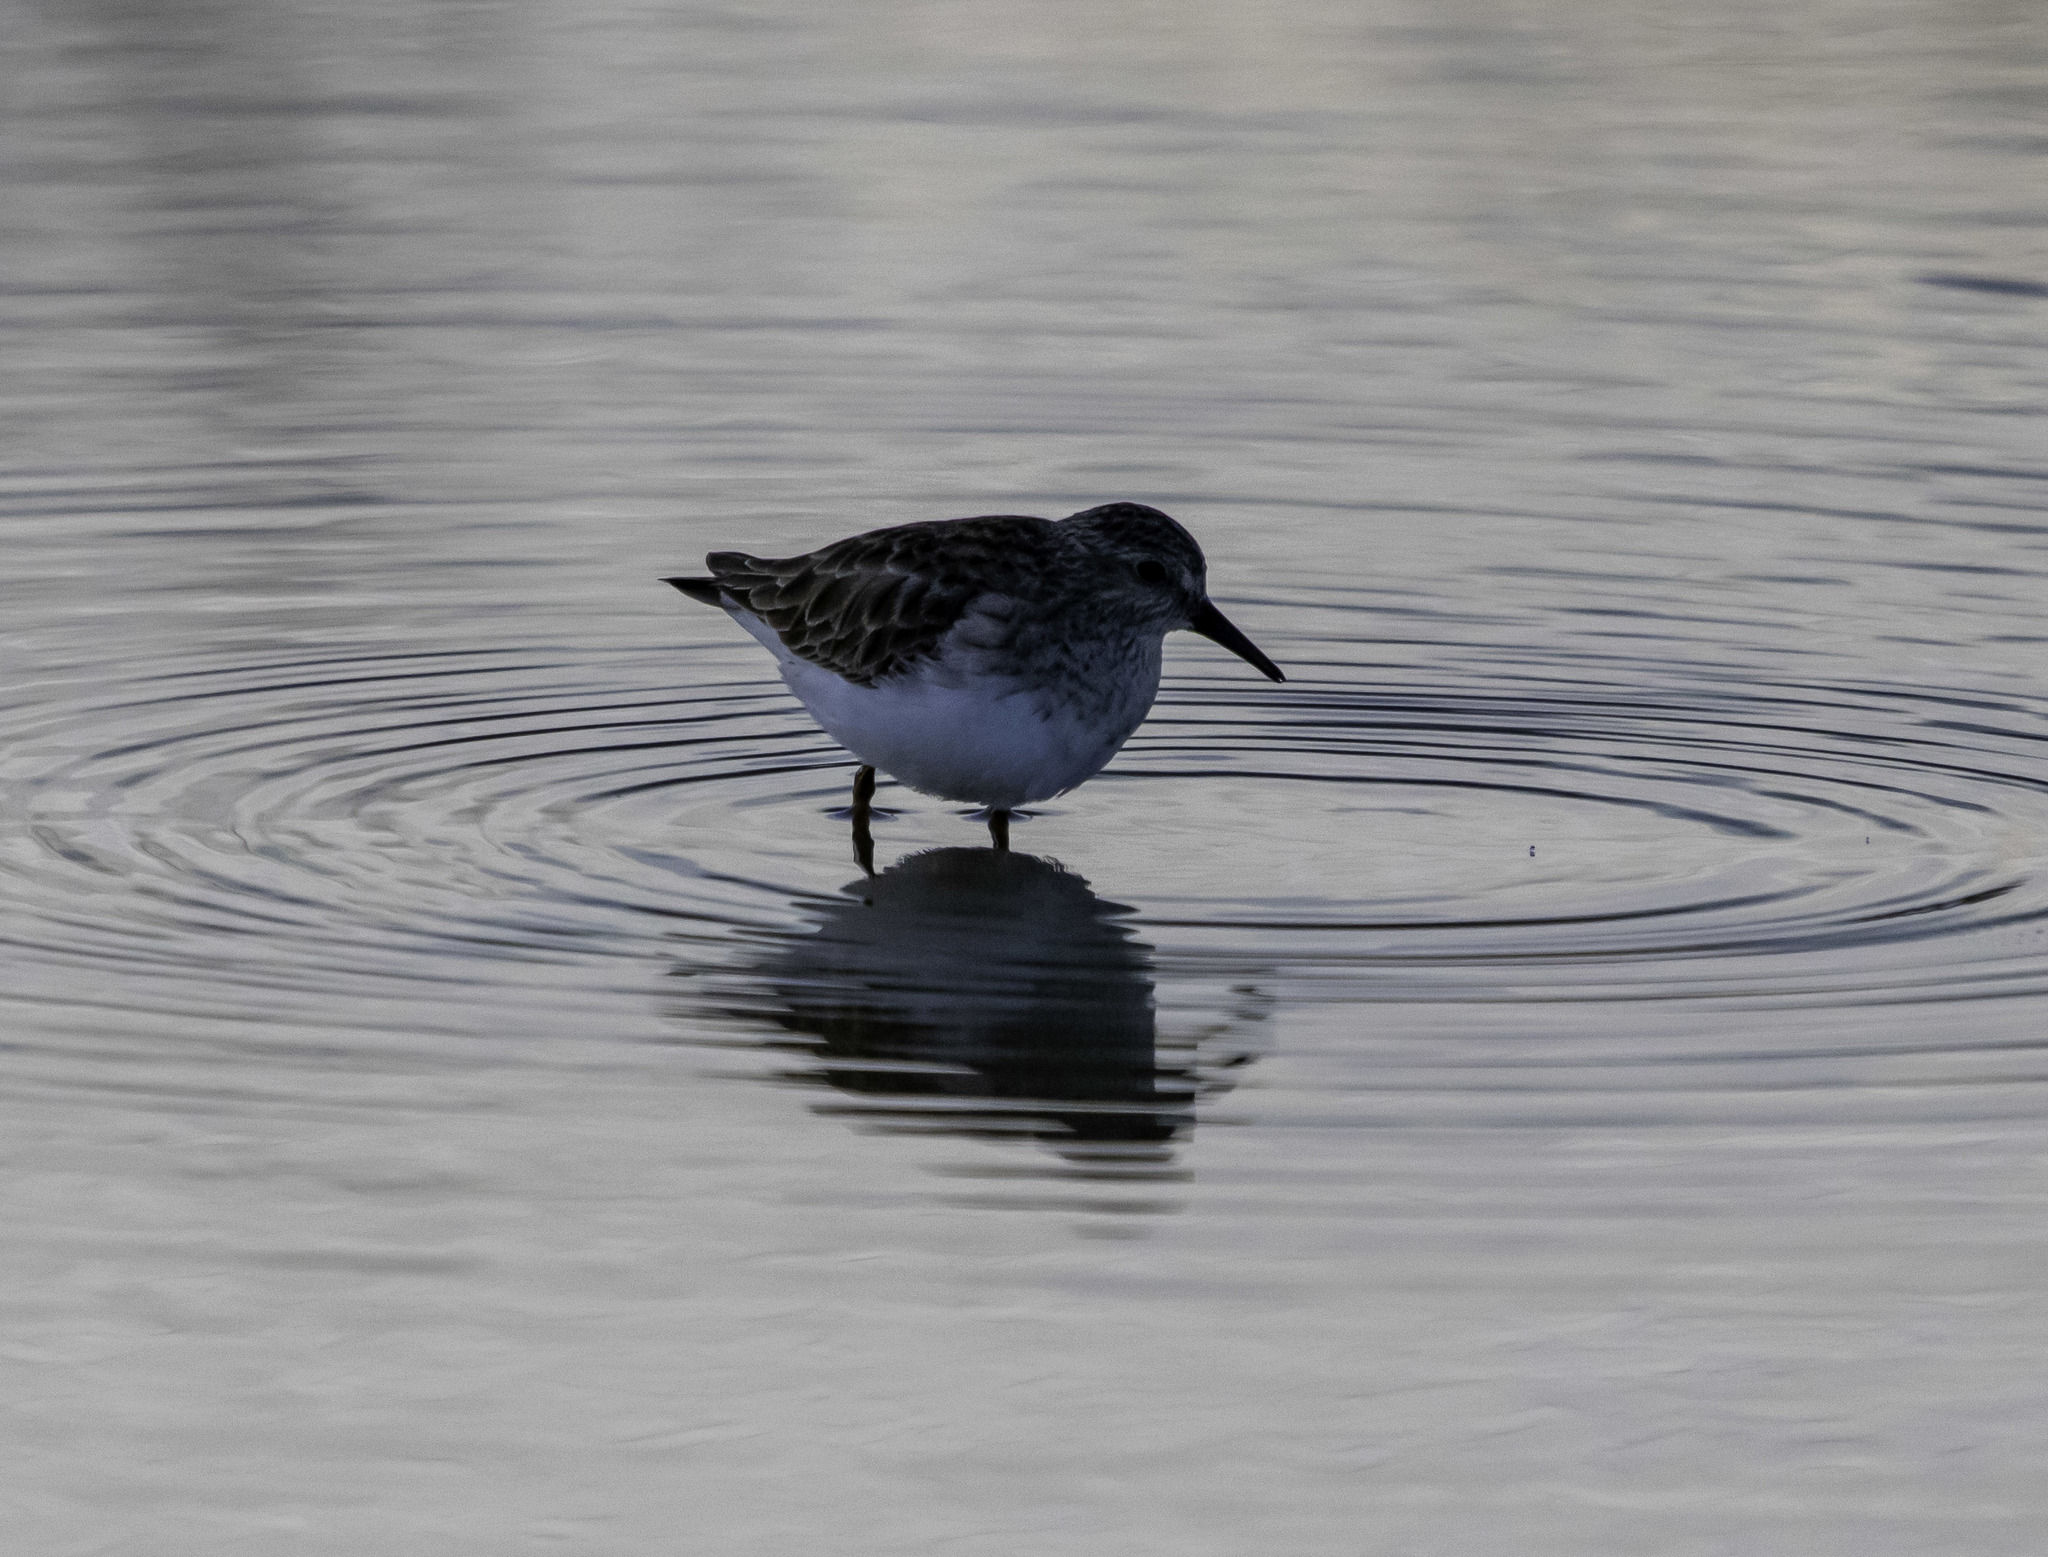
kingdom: Animalia
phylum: Chordata
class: Aves
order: Charadriiformes
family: Scolopacidae
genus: Calidris
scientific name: Calidris minutilla
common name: Least sandpiper
